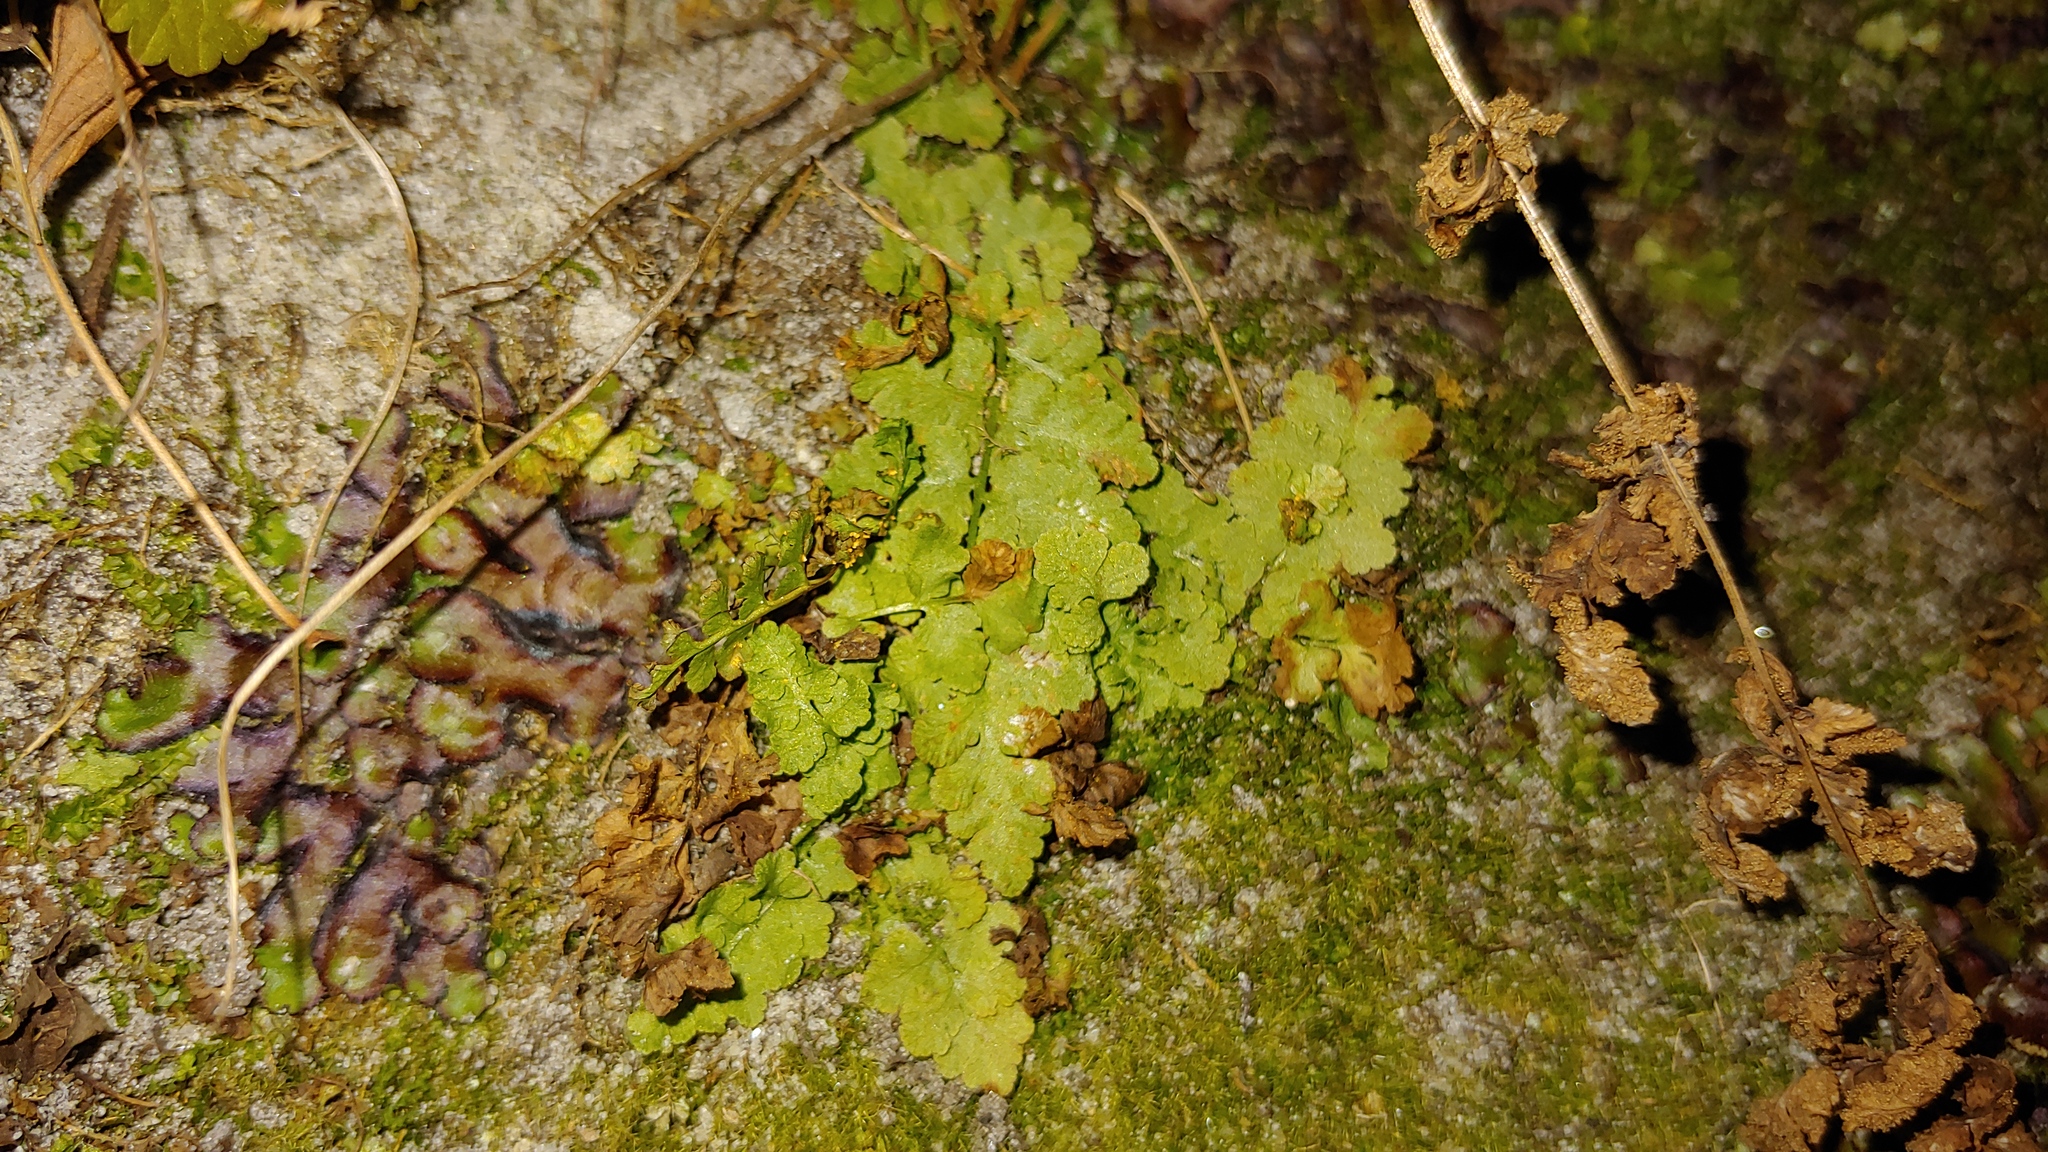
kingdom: Plantae
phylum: Tracheophyta
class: Polypodiopsida
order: Polypodiales
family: Woodsiaceae
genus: Physematium
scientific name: Physematium obtusum
